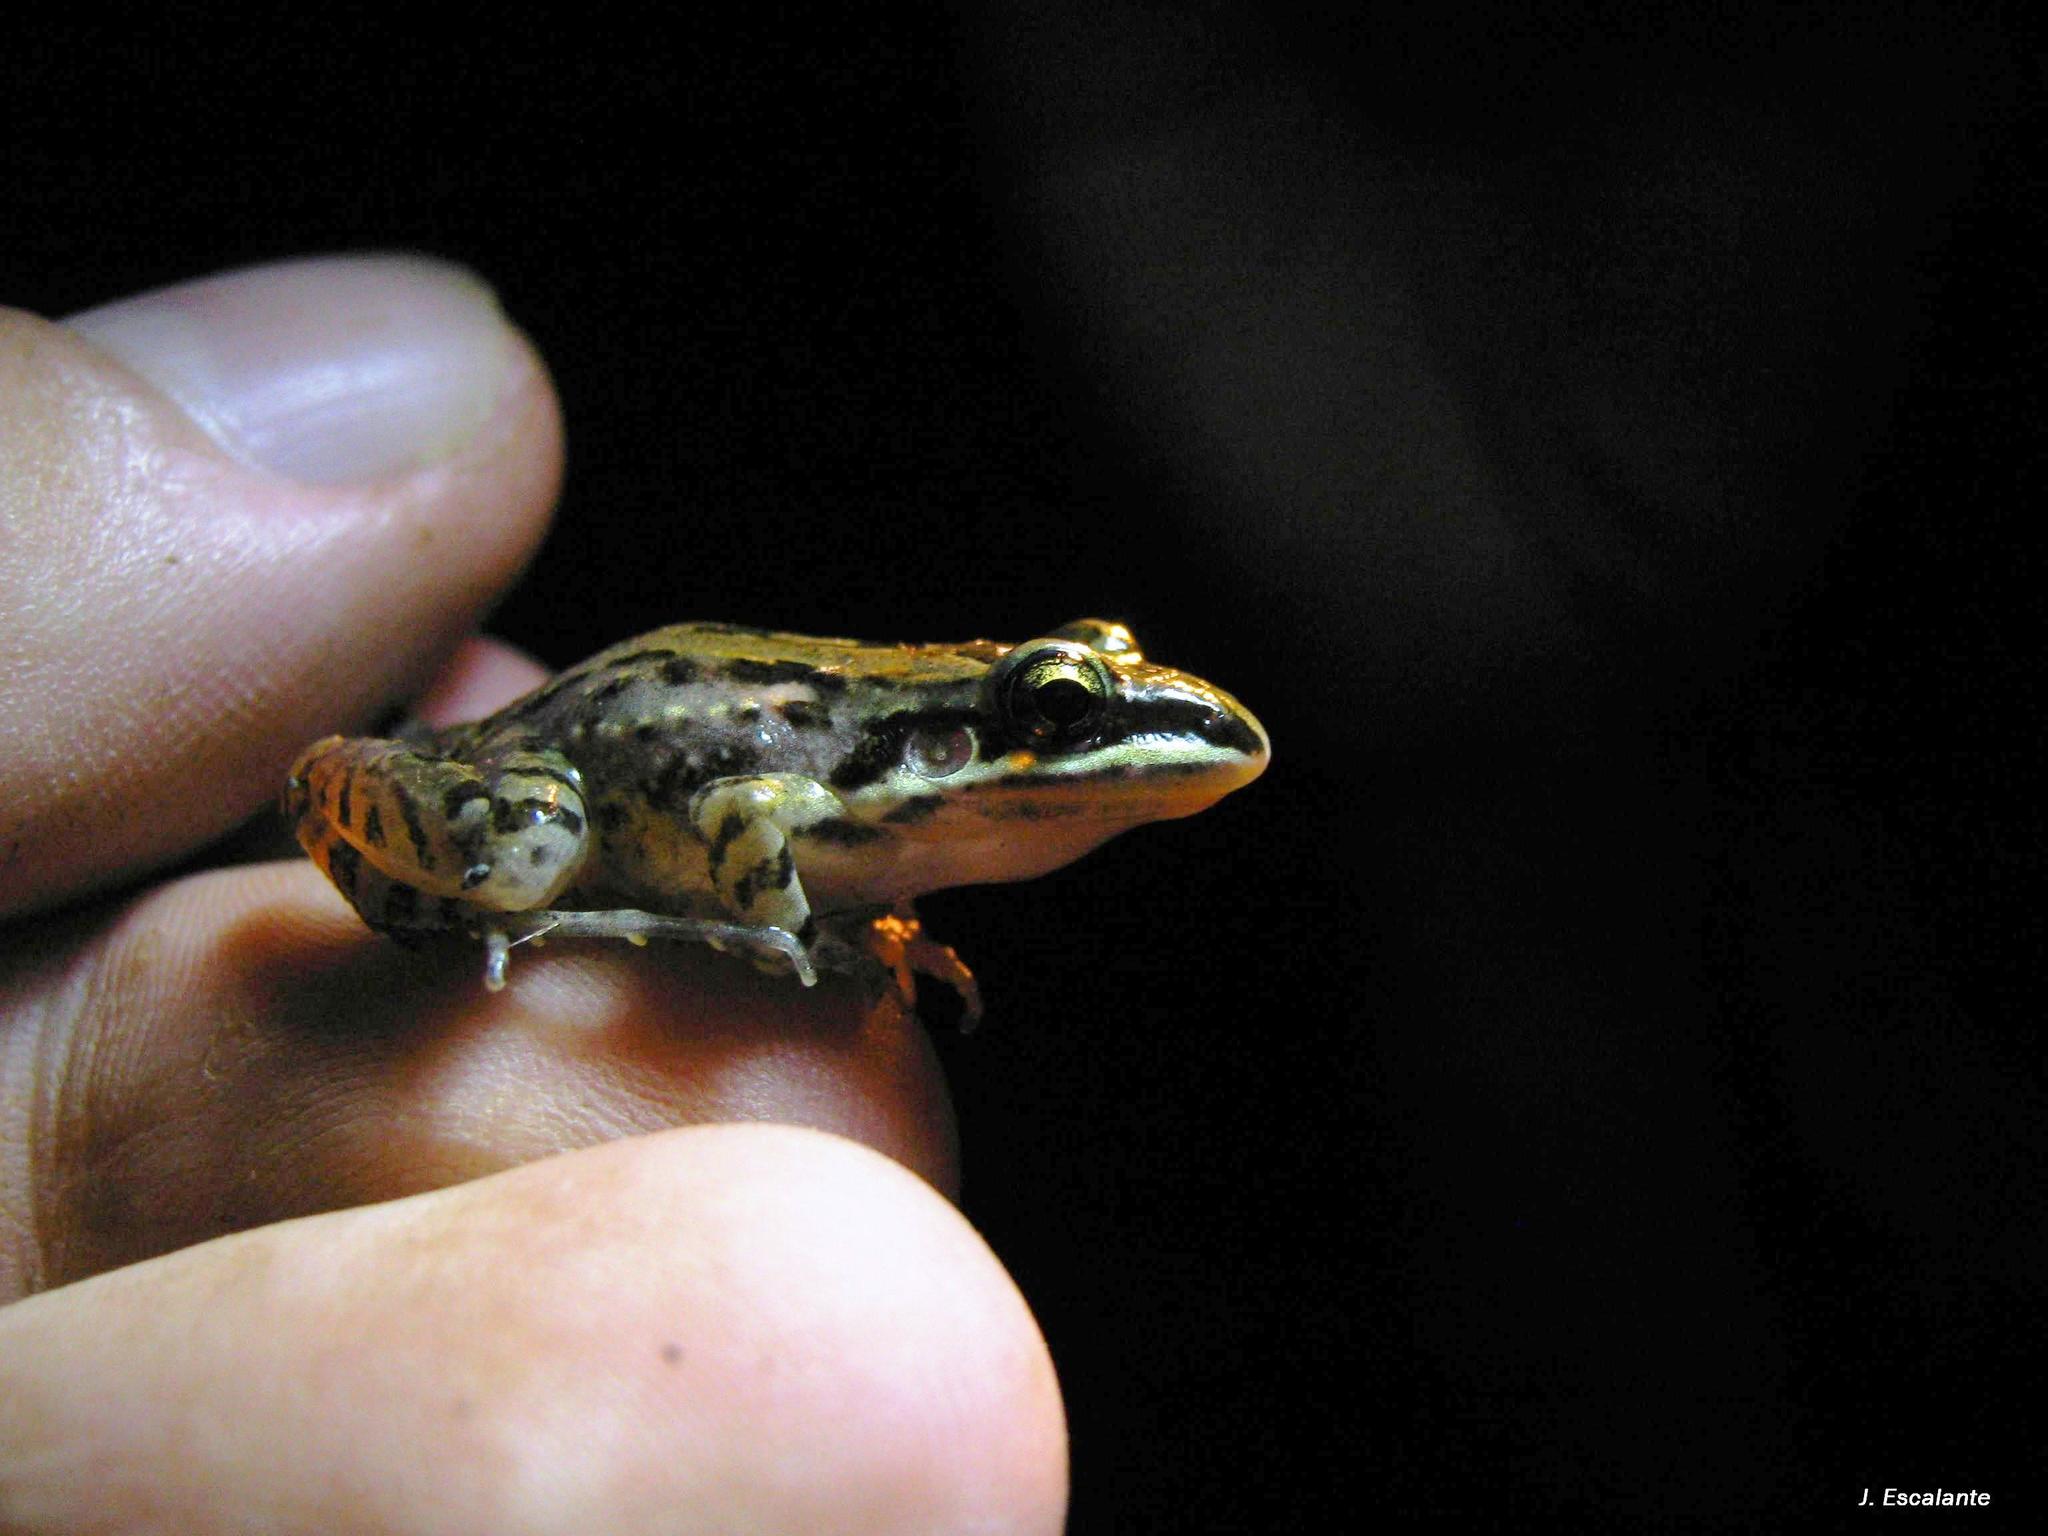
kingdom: Animalia
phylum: Chordata
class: Amphibia
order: Anura
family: Leptodactylidae
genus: Leptodactylus
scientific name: Leptodactylus fragilis
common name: Mexican white-lipped frog
